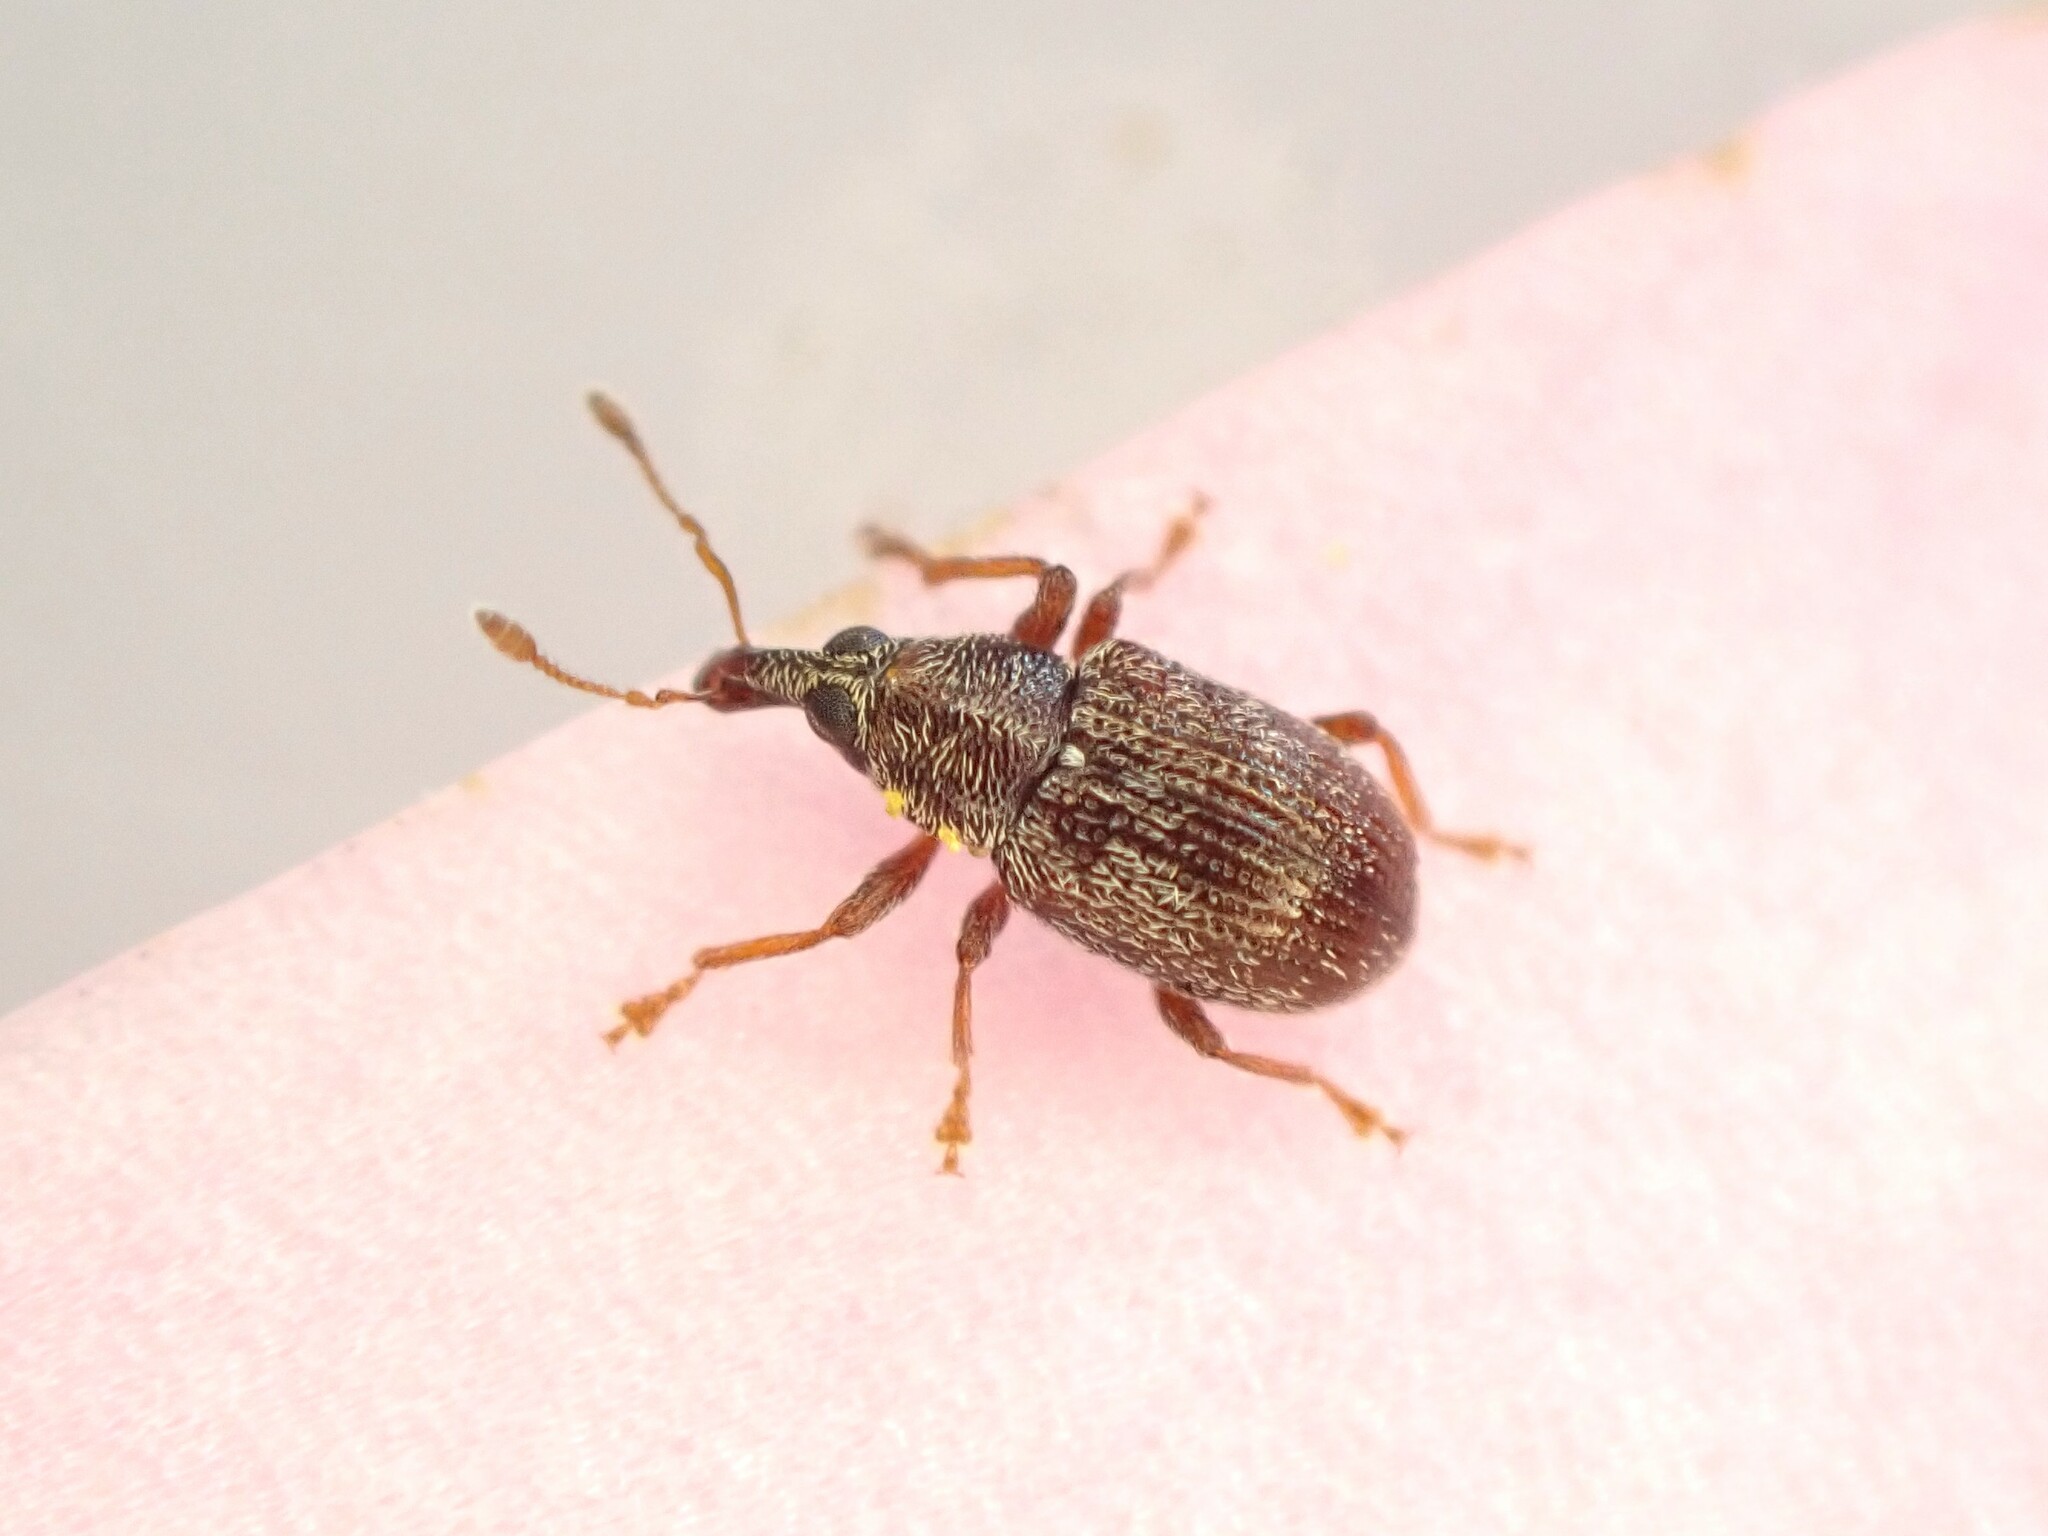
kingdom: Animalia
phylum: Arthropoda
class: Insecta
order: Coleoptera
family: Curculionidae
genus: Neomycta
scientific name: Neomycta rubida
